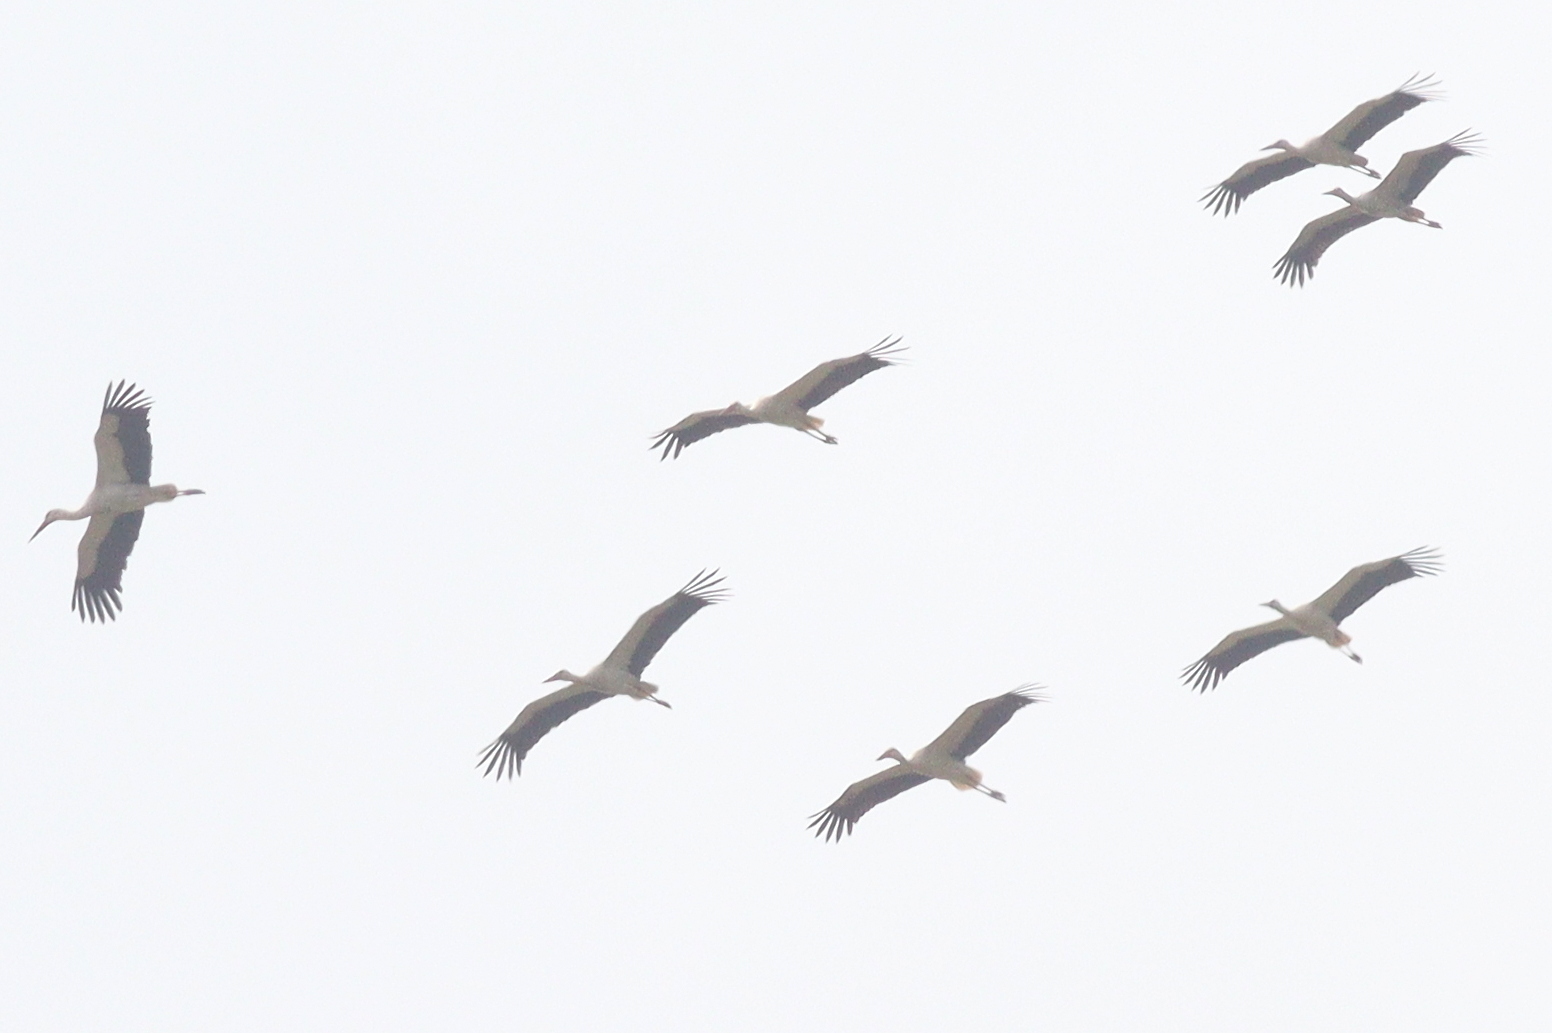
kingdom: Animalia
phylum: Chordata
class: Aves
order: Ciconiiformes
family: Ciconiidae
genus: Ciconia
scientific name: Ciconia ciconia
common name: White stork
